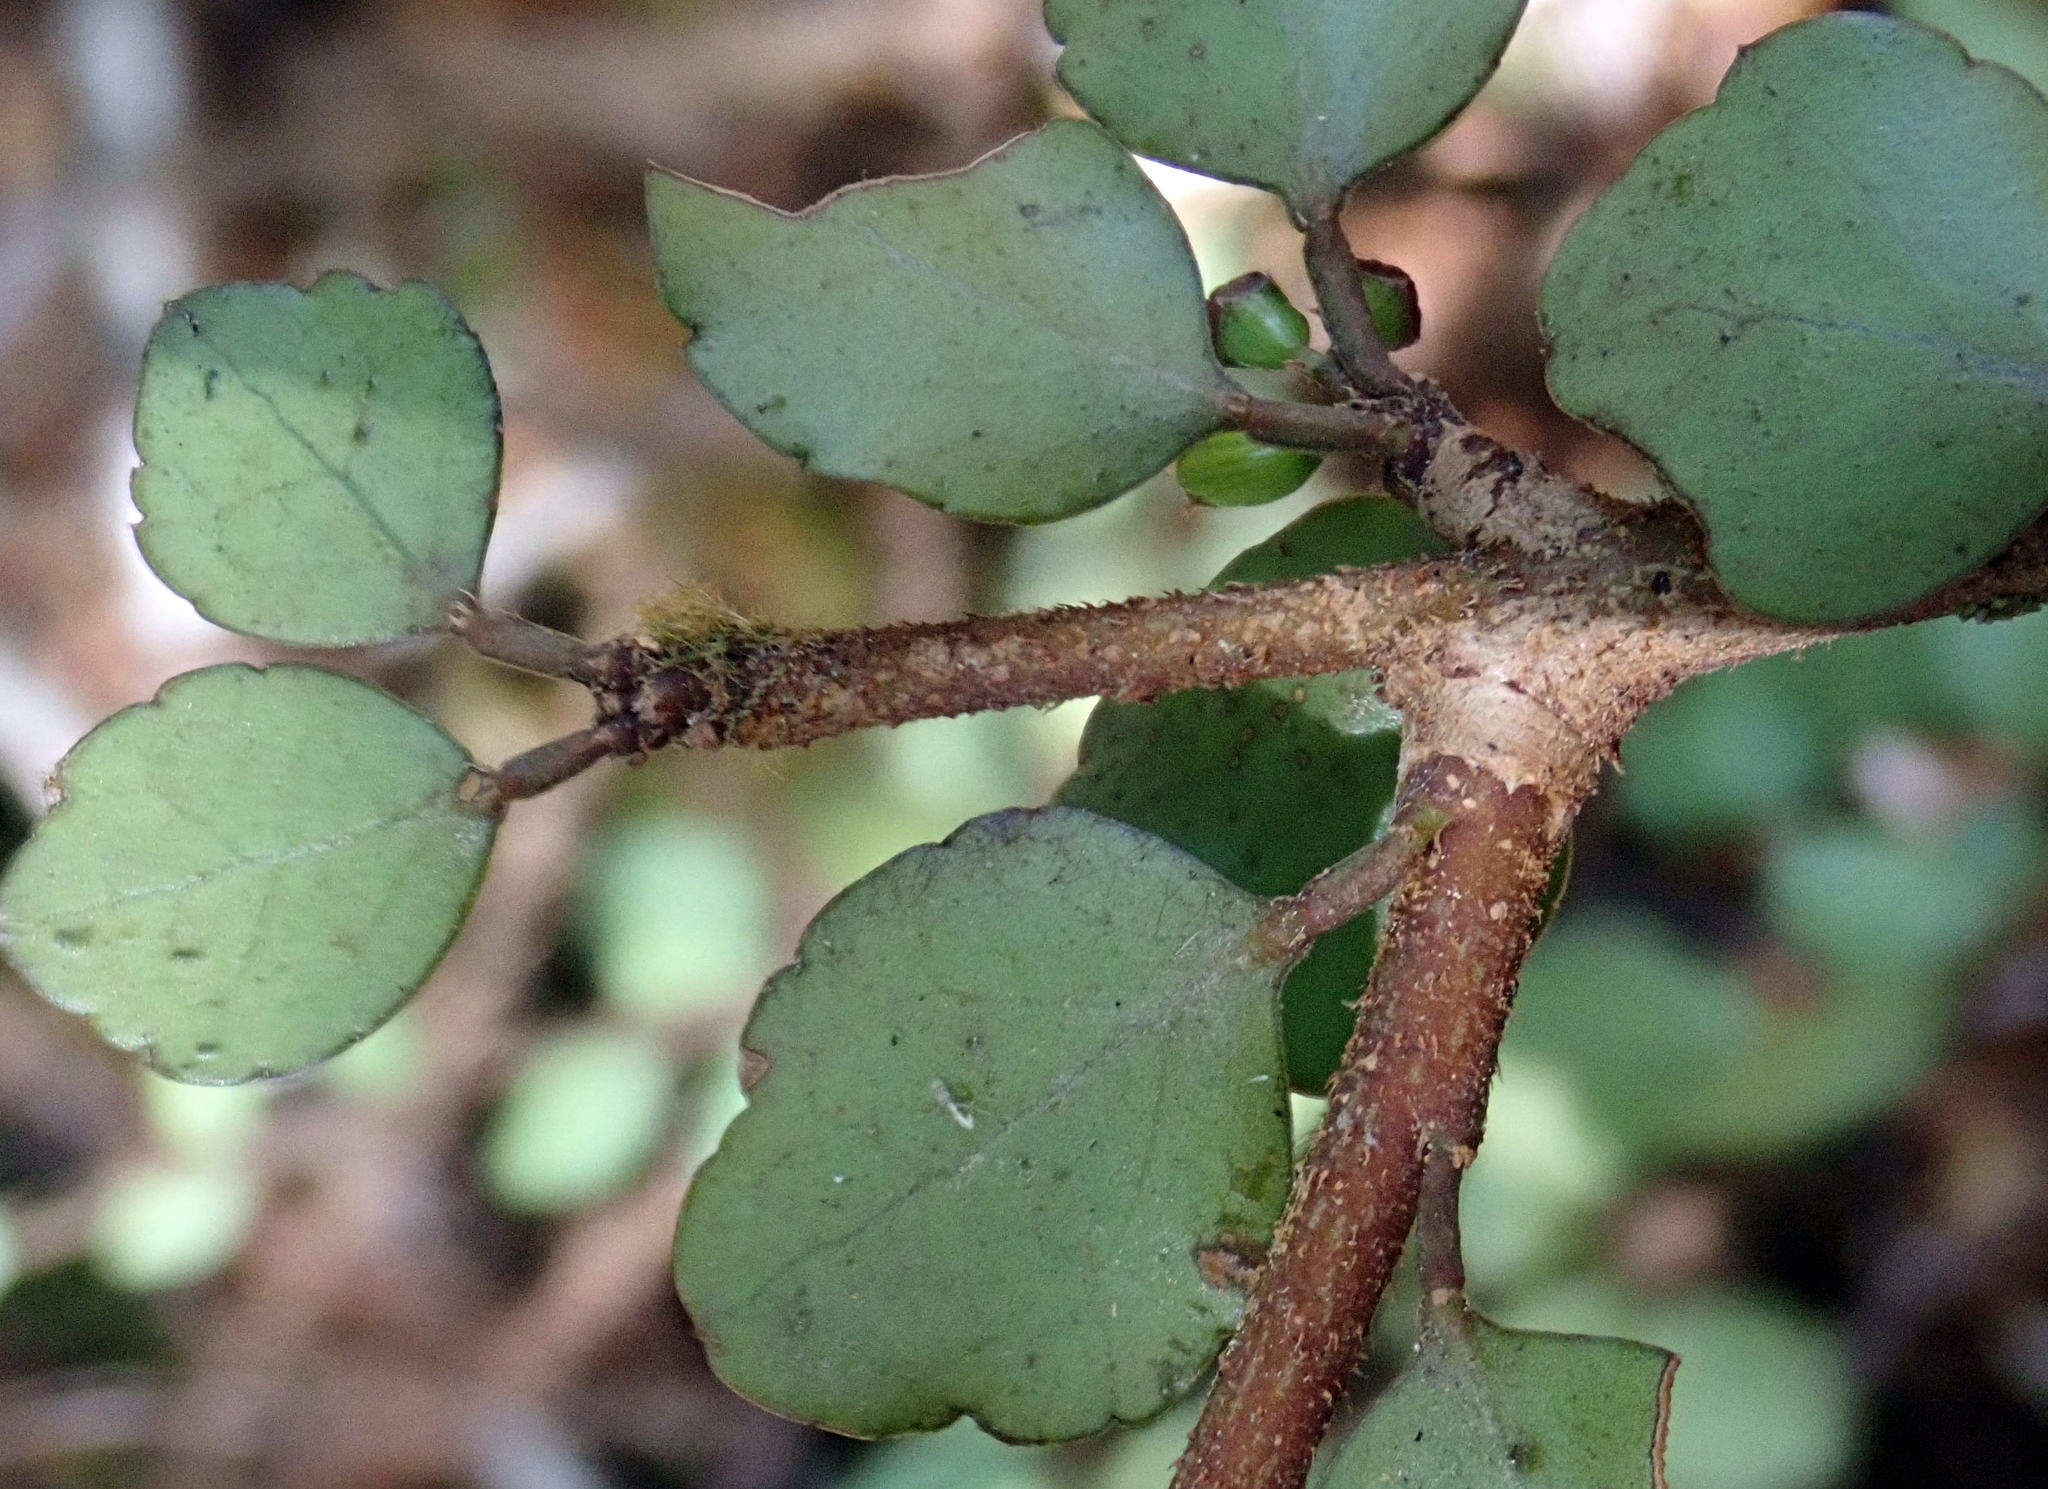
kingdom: Plantae
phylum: Tracheophyta
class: Magnoliopsida
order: Apiales
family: Araliaceae
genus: Raukaua
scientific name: Raukaua anomalus
